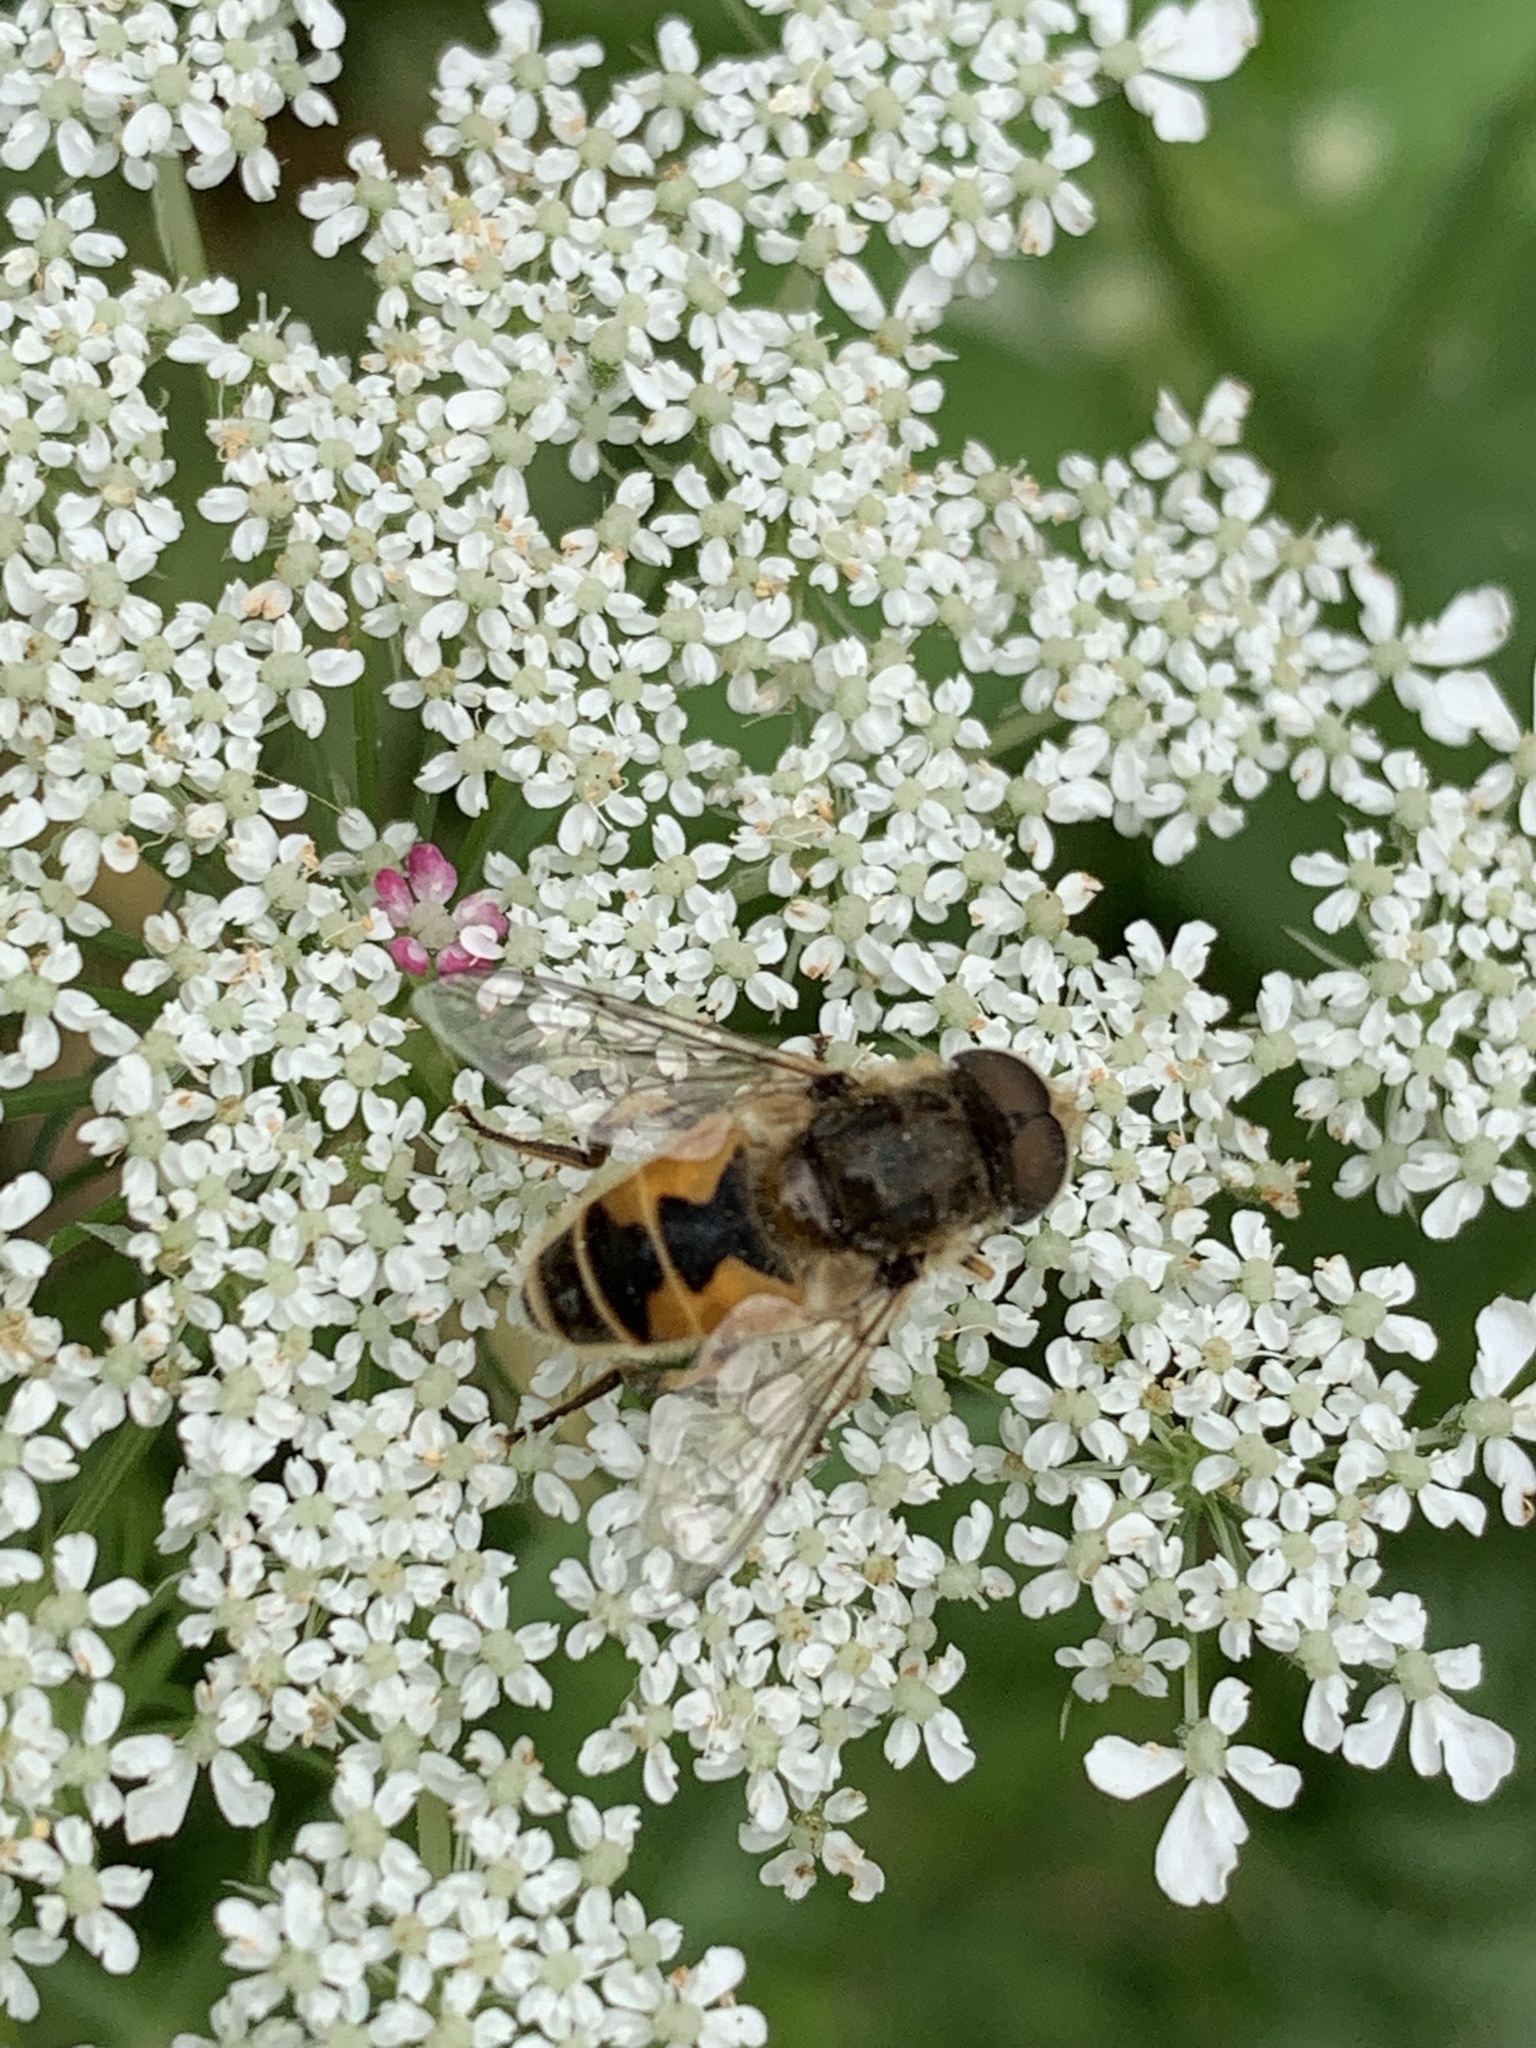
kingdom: Animalia
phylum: Arthropoda
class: Insecta
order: Diptera
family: Syrphidae
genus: Eristalis
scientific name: Eristalis arbustorum
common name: Hover fly
